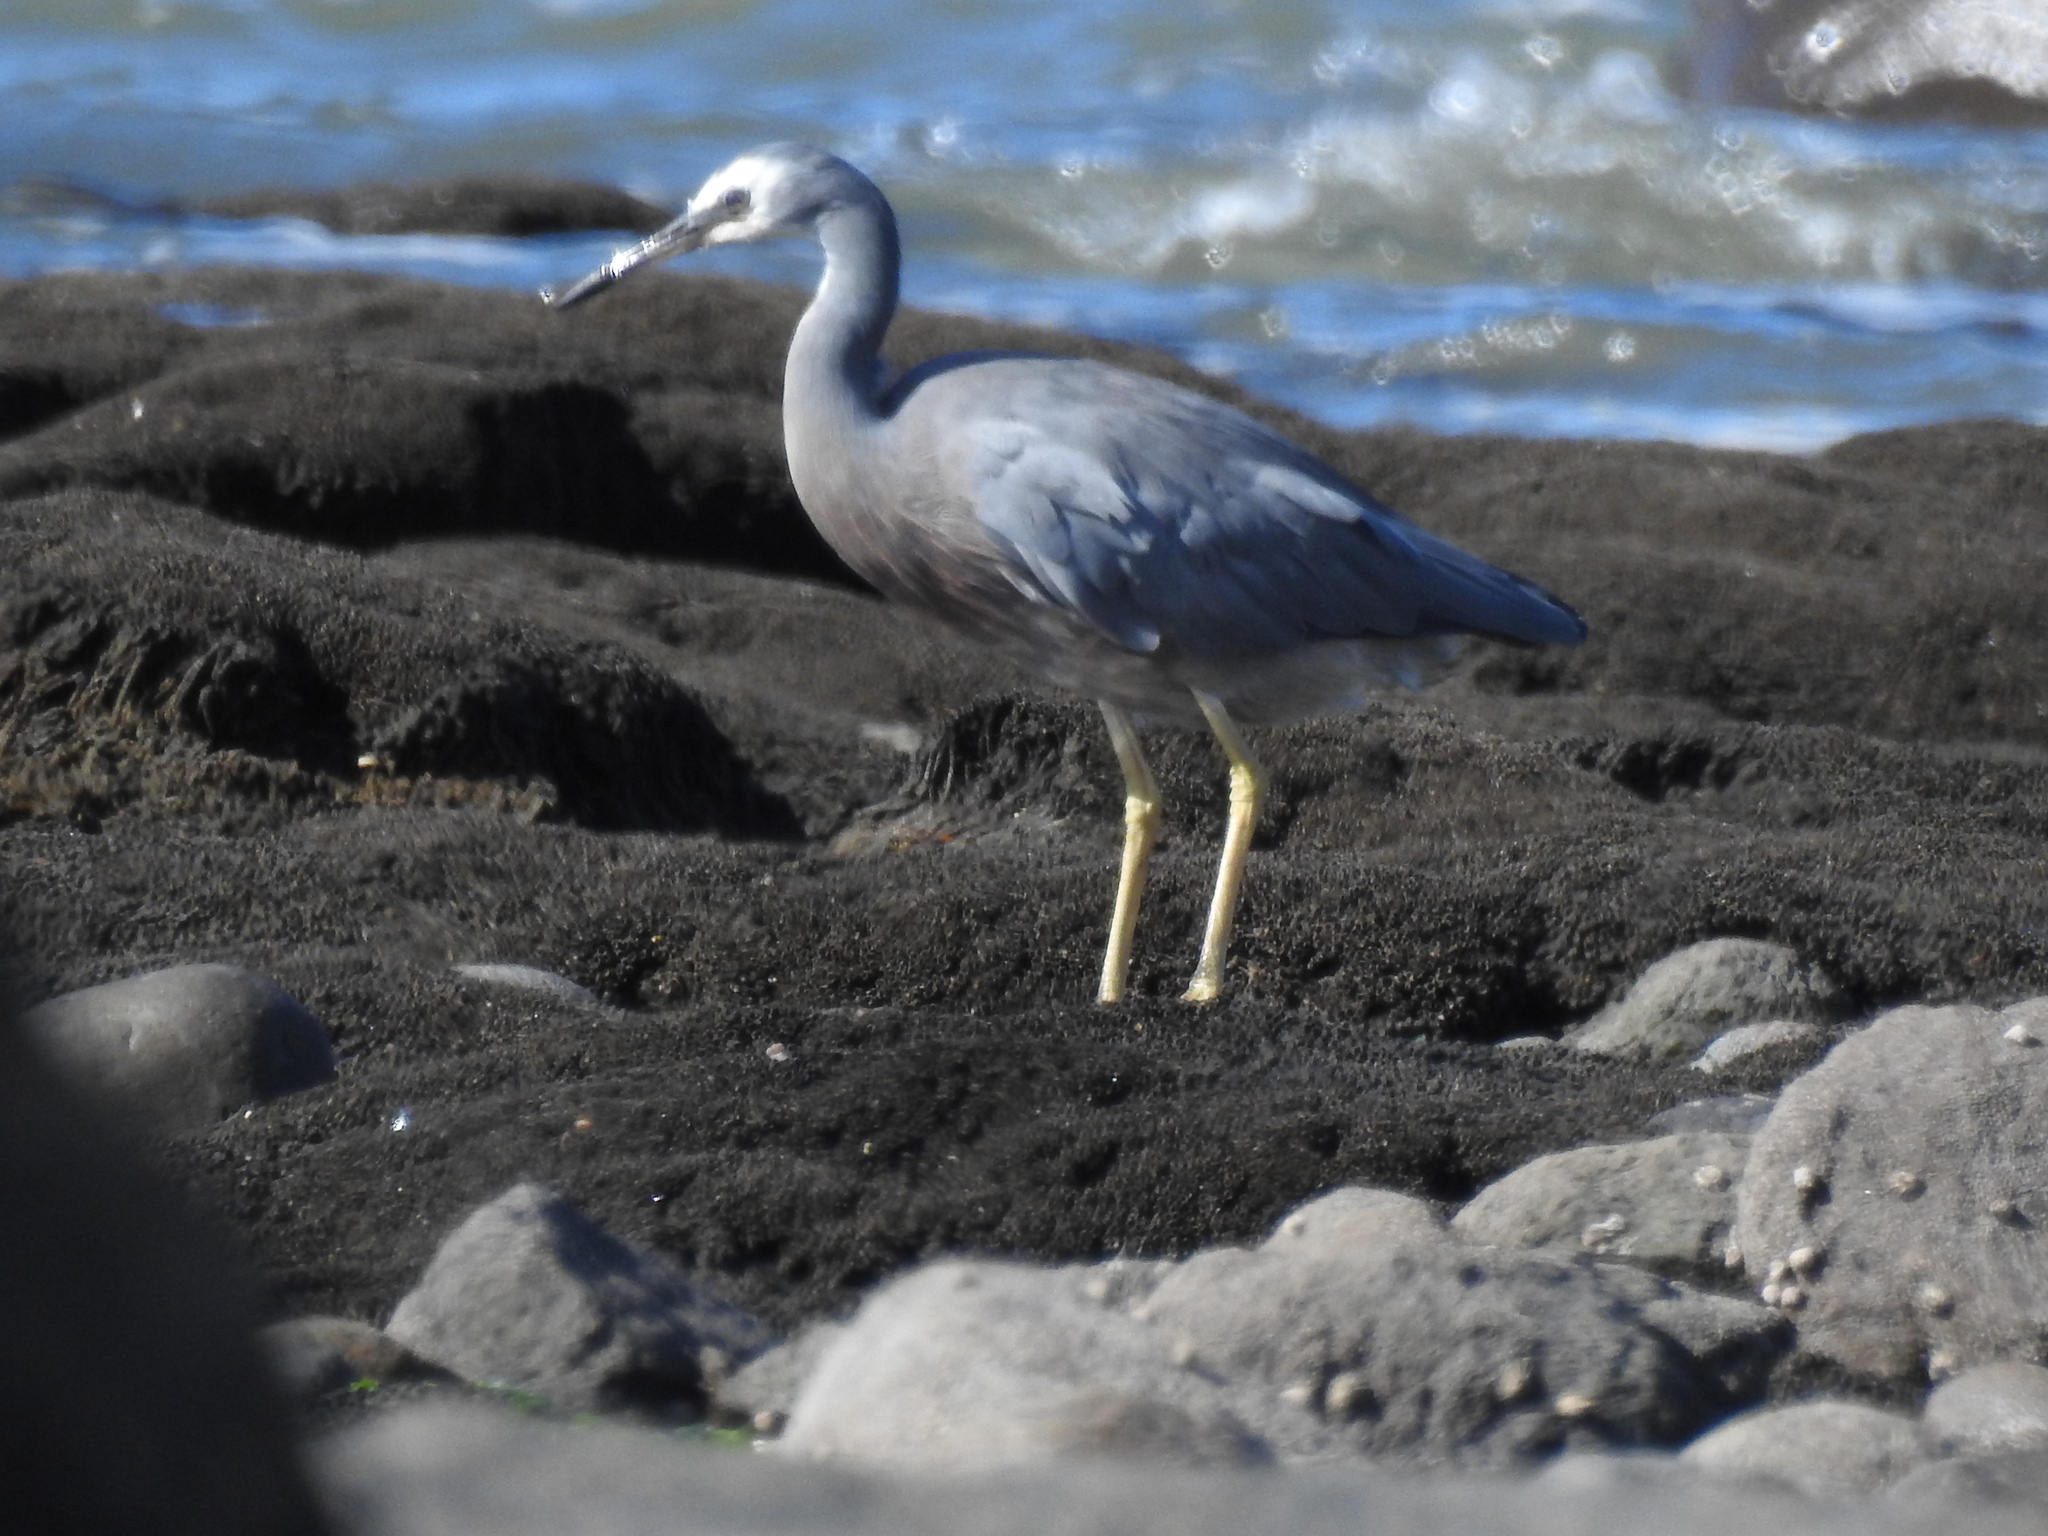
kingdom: Animalia
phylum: Chordata
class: Aves
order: Pelecaniformes
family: Ardeidae
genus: Egretta
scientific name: Egretta novaehollandiae
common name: White-faced heron
